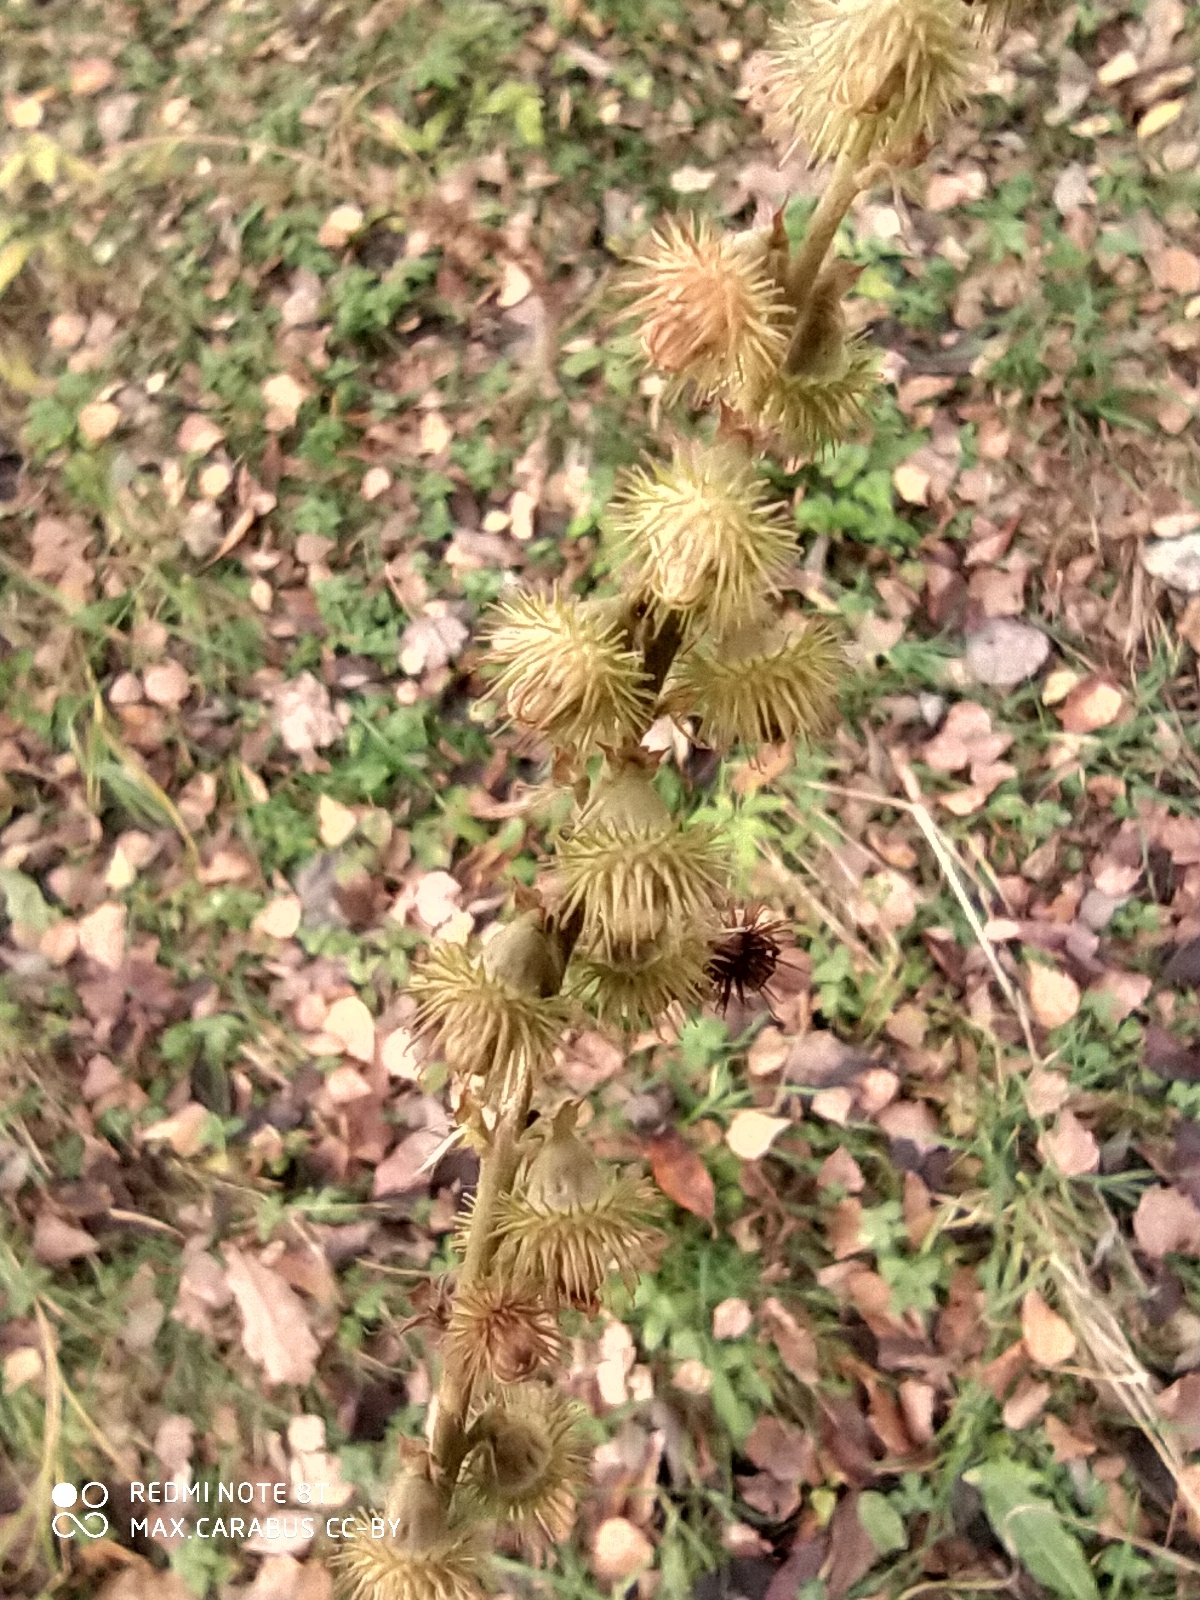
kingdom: Plantae
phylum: Tracheophyta
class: Magnoliopsida
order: Rosales
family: Rosaceae
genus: Agrimonia
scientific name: Agrimonia procera
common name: Fragrant agrimony
